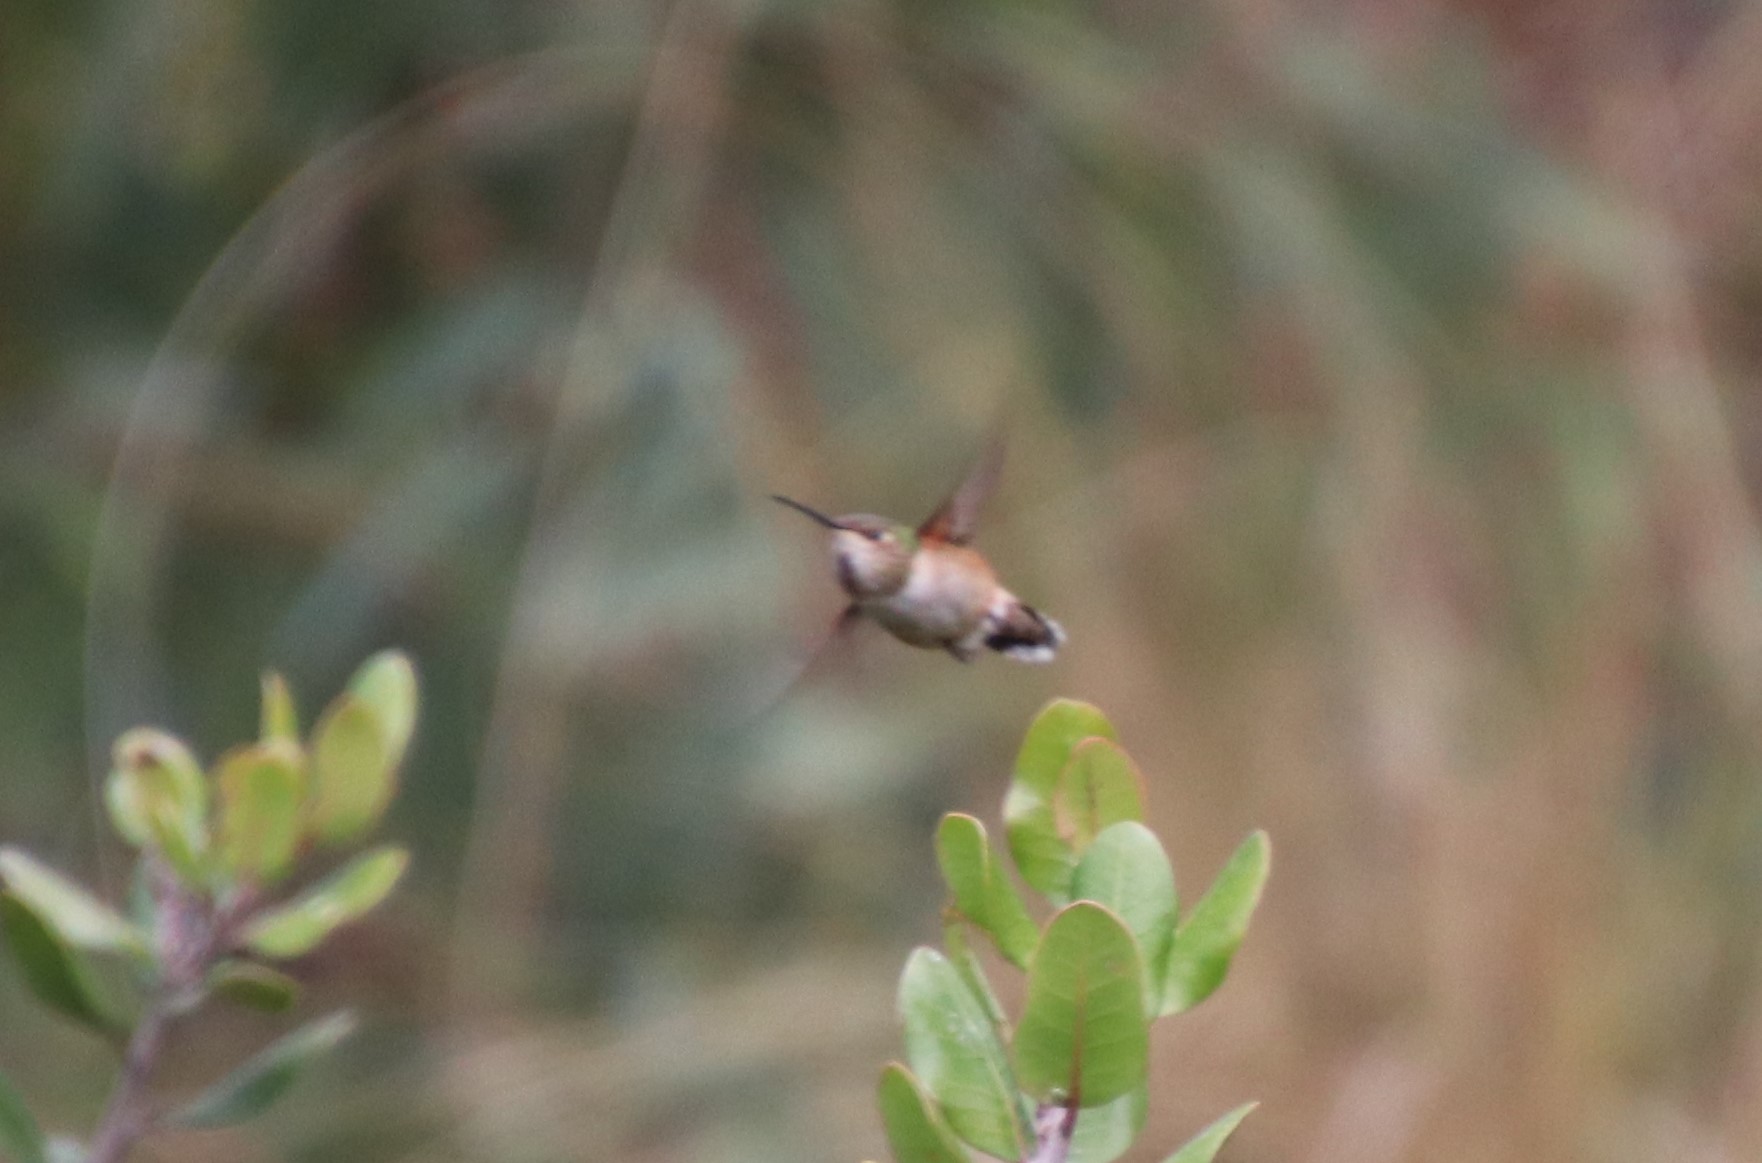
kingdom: Animalia
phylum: Chordata
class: Aves
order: Apodiformes
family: Trochilidae
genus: Selasphorus
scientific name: Selasphorus sasin
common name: Allen's hummingbird
